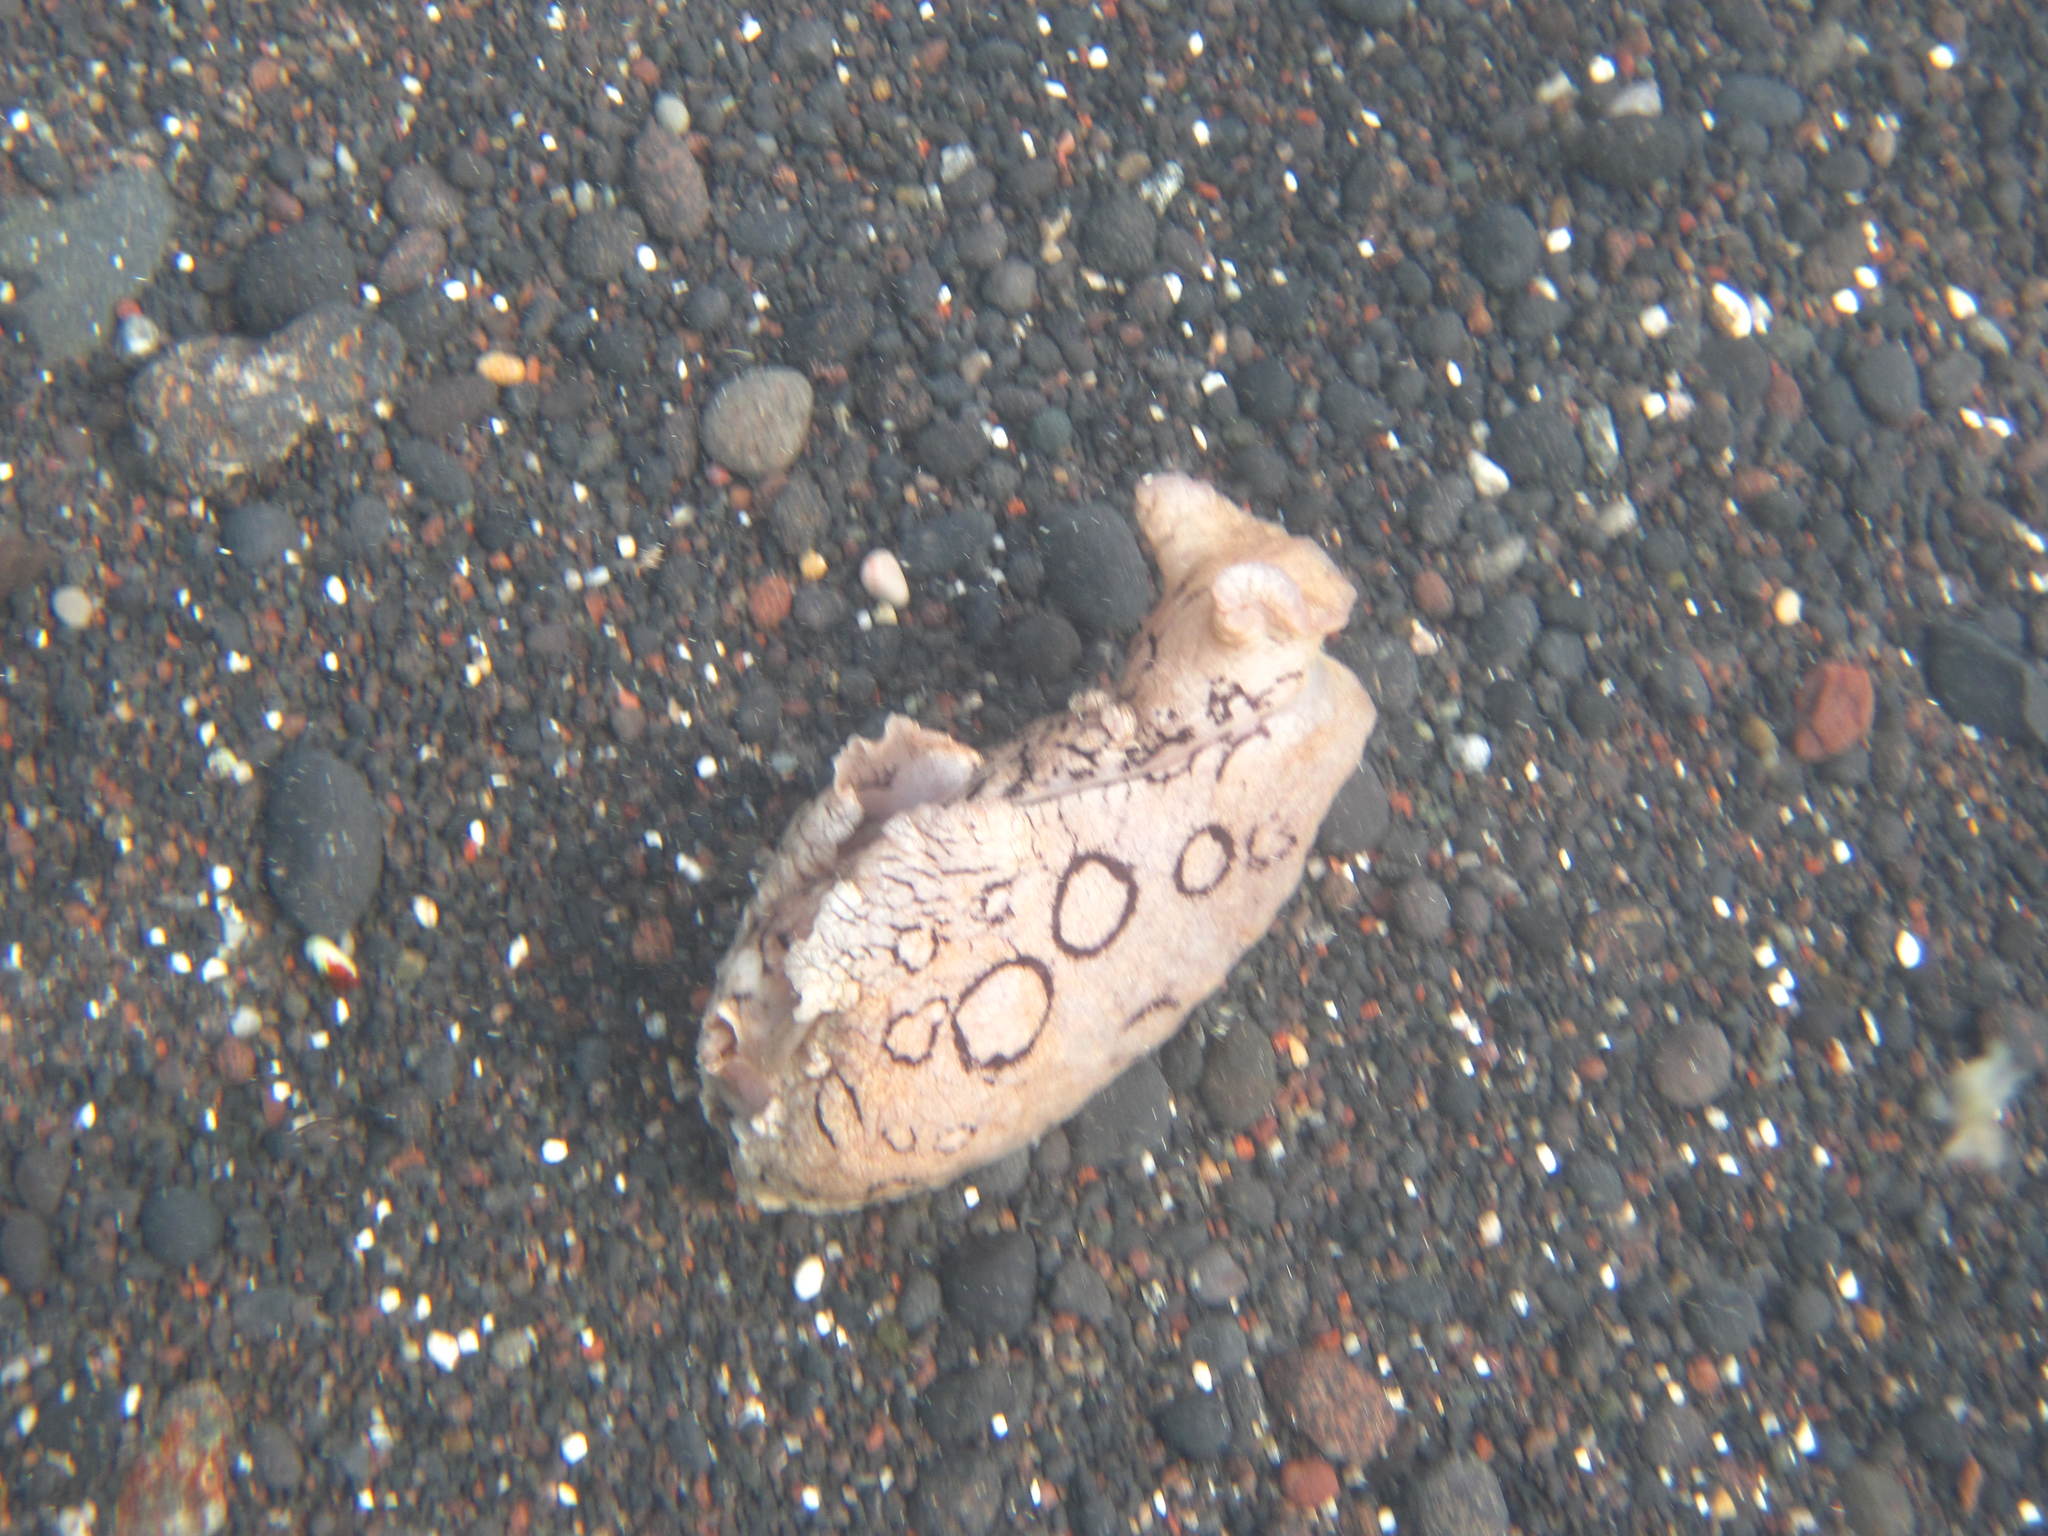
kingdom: Animalia
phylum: Mollusca
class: Gastropoda
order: Aplysiida
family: Aplysiidae
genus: Aplysia
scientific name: Aplysia dactylomela
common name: Large-spotted sea hare
